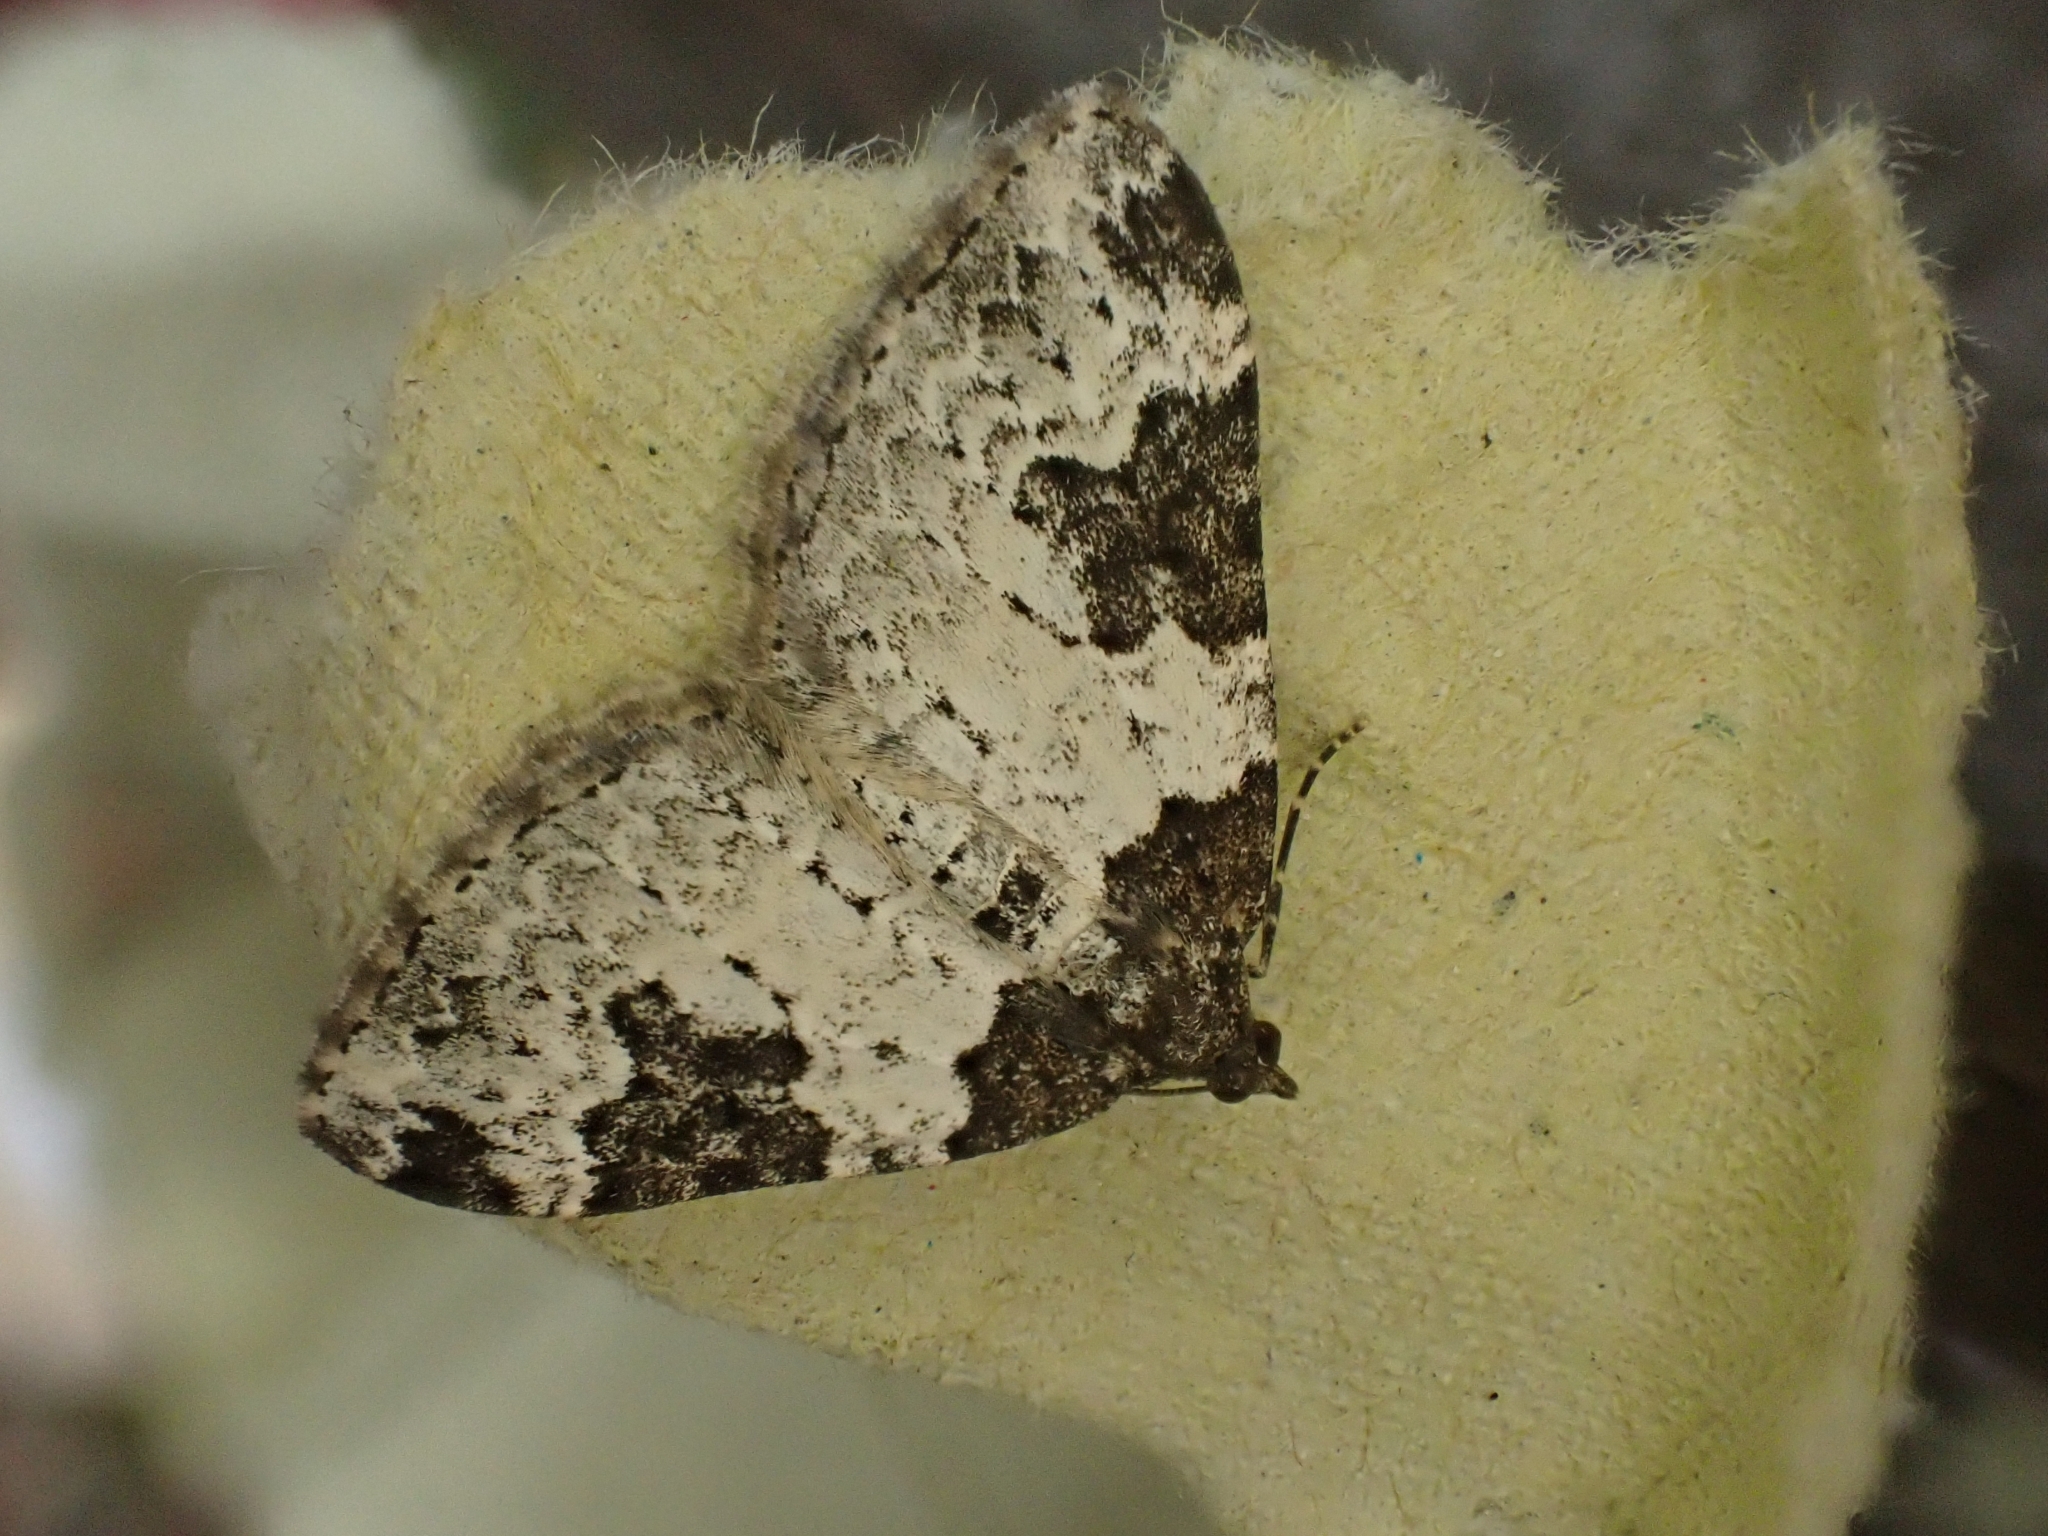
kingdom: Animalia
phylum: Arthropoda
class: Insecta
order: Lepidoptera
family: Geometridae
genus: Xanthorhoe
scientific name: Xanthorhoe fluctuata
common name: Garden carpet
